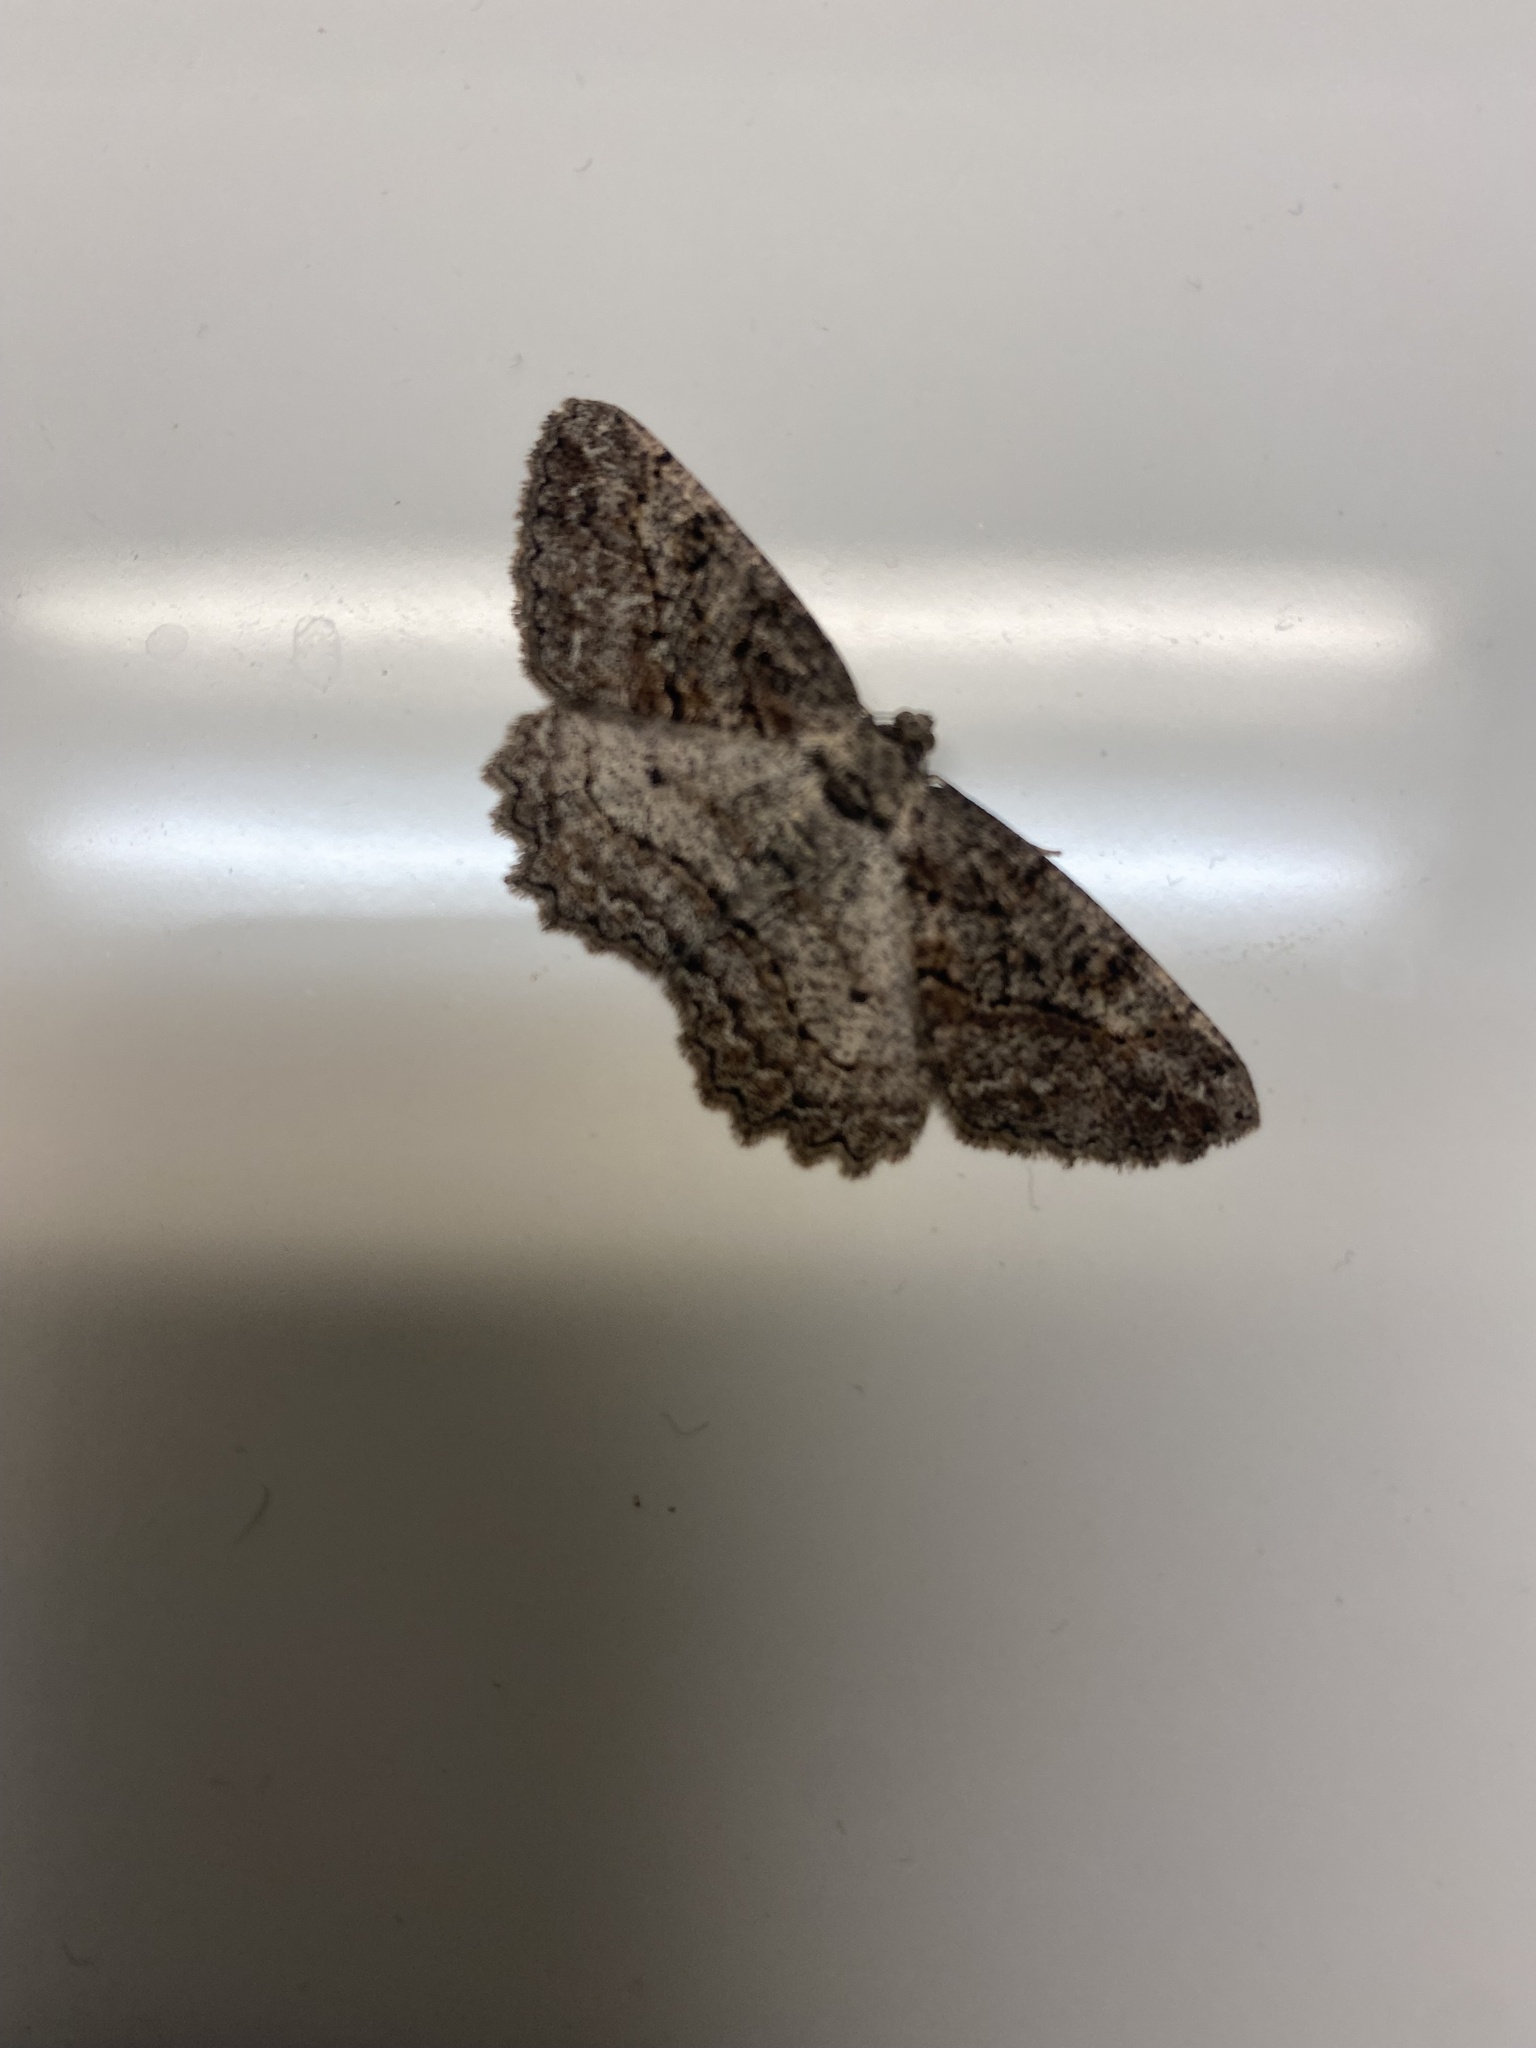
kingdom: Animalia
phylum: Arthropoda
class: Insecta
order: Lepidoptera
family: Geometridae
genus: Neoalcis
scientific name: Neoalcis californiaria
